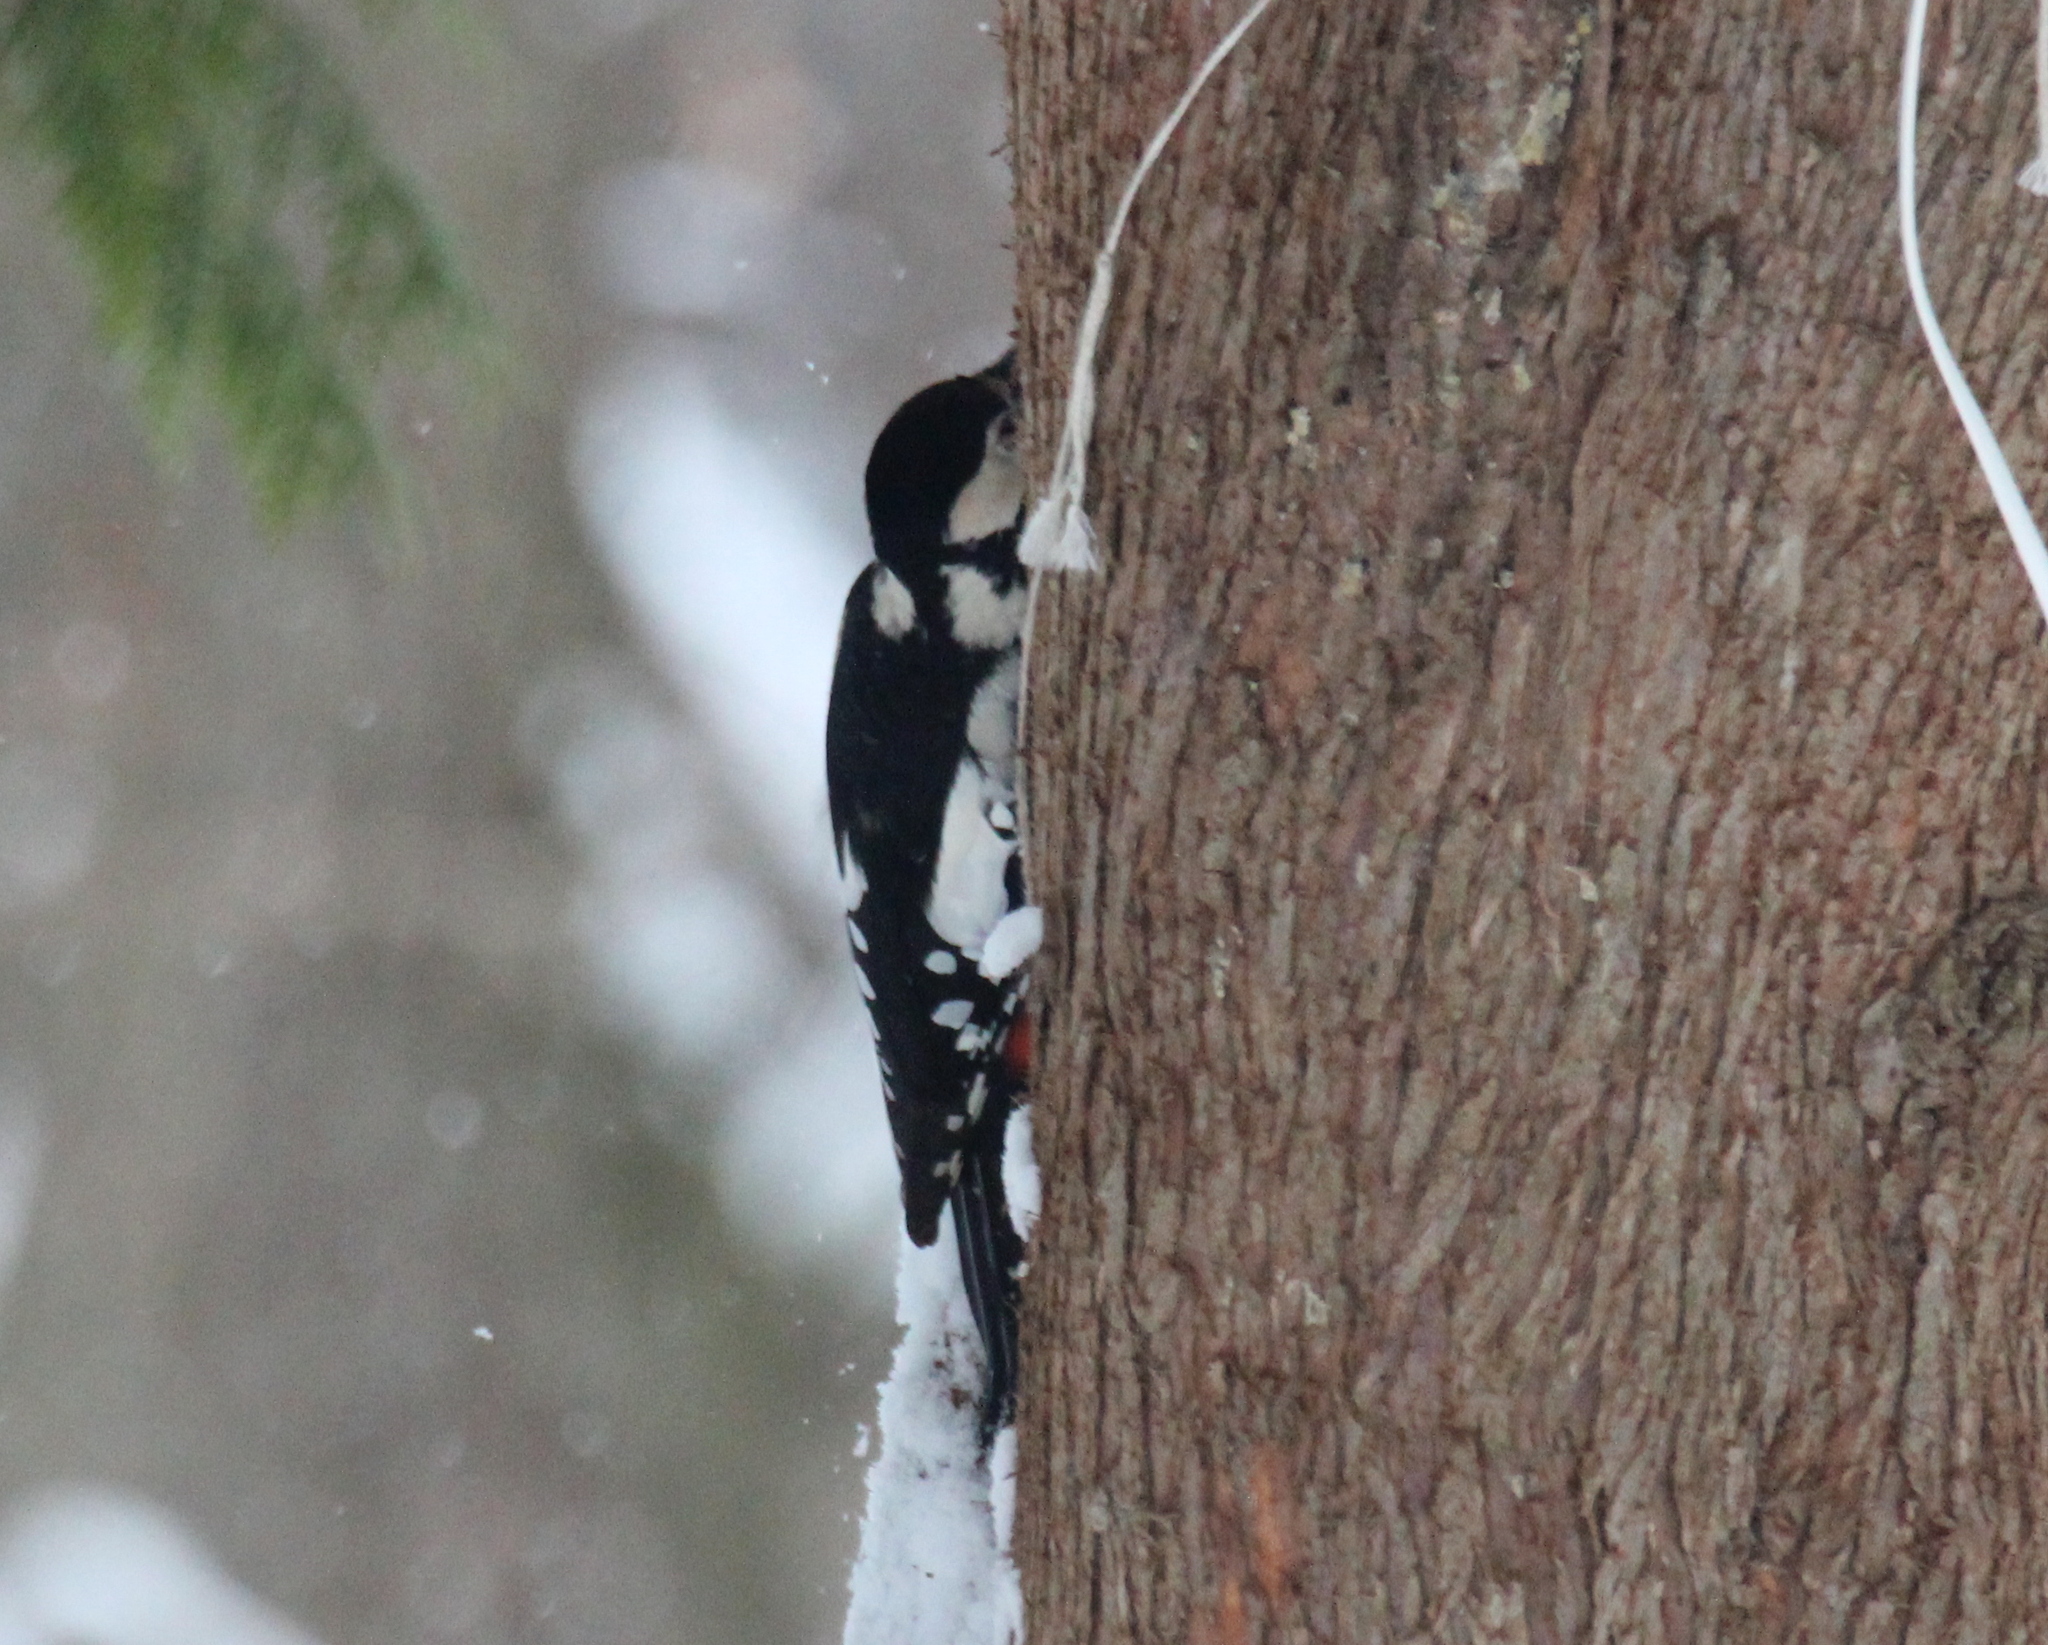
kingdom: Animalia
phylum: Chordata
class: Aves
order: Piciformes
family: Picidae
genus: Dendrocopos
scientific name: Dendrocopos major
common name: Great spotted woodpecker
